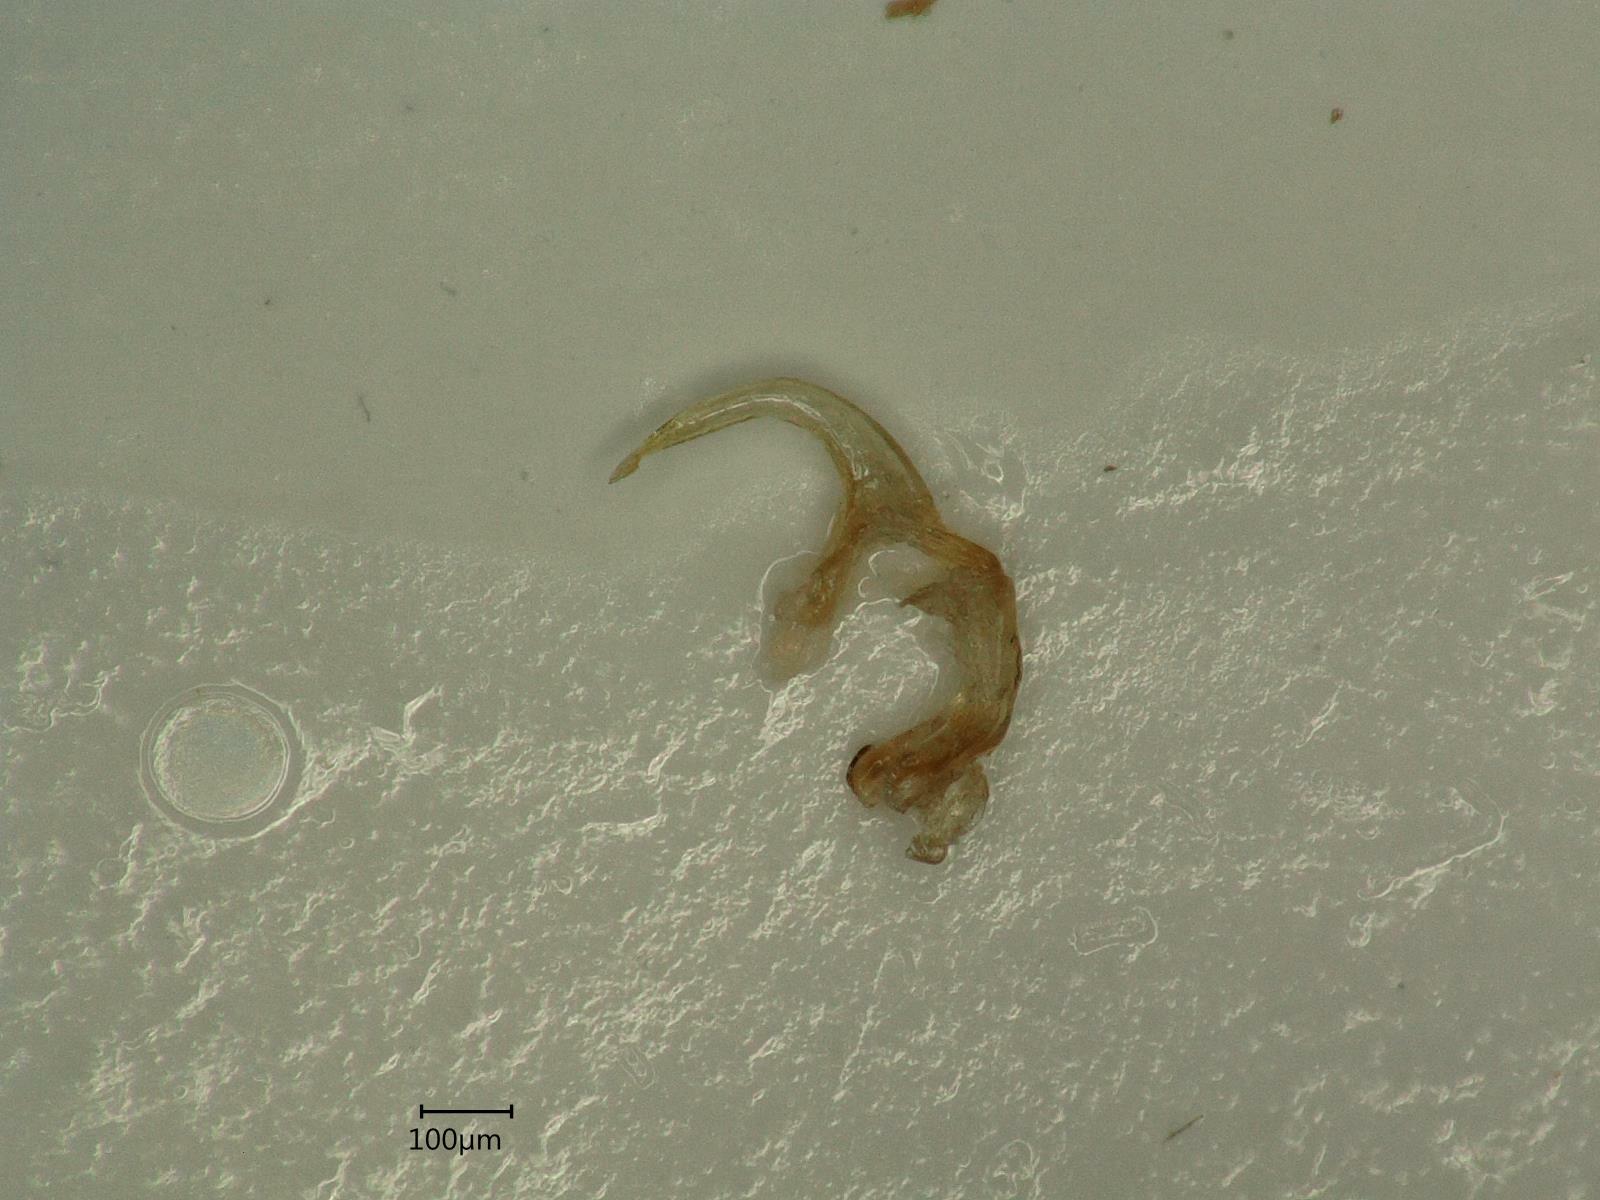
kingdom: Animalia
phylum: Arthropoda
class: Insecta
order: Hemiptera
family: Cicadellidae
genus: Macropsis
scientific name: Macropsis fuscula
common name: Leafhopper
